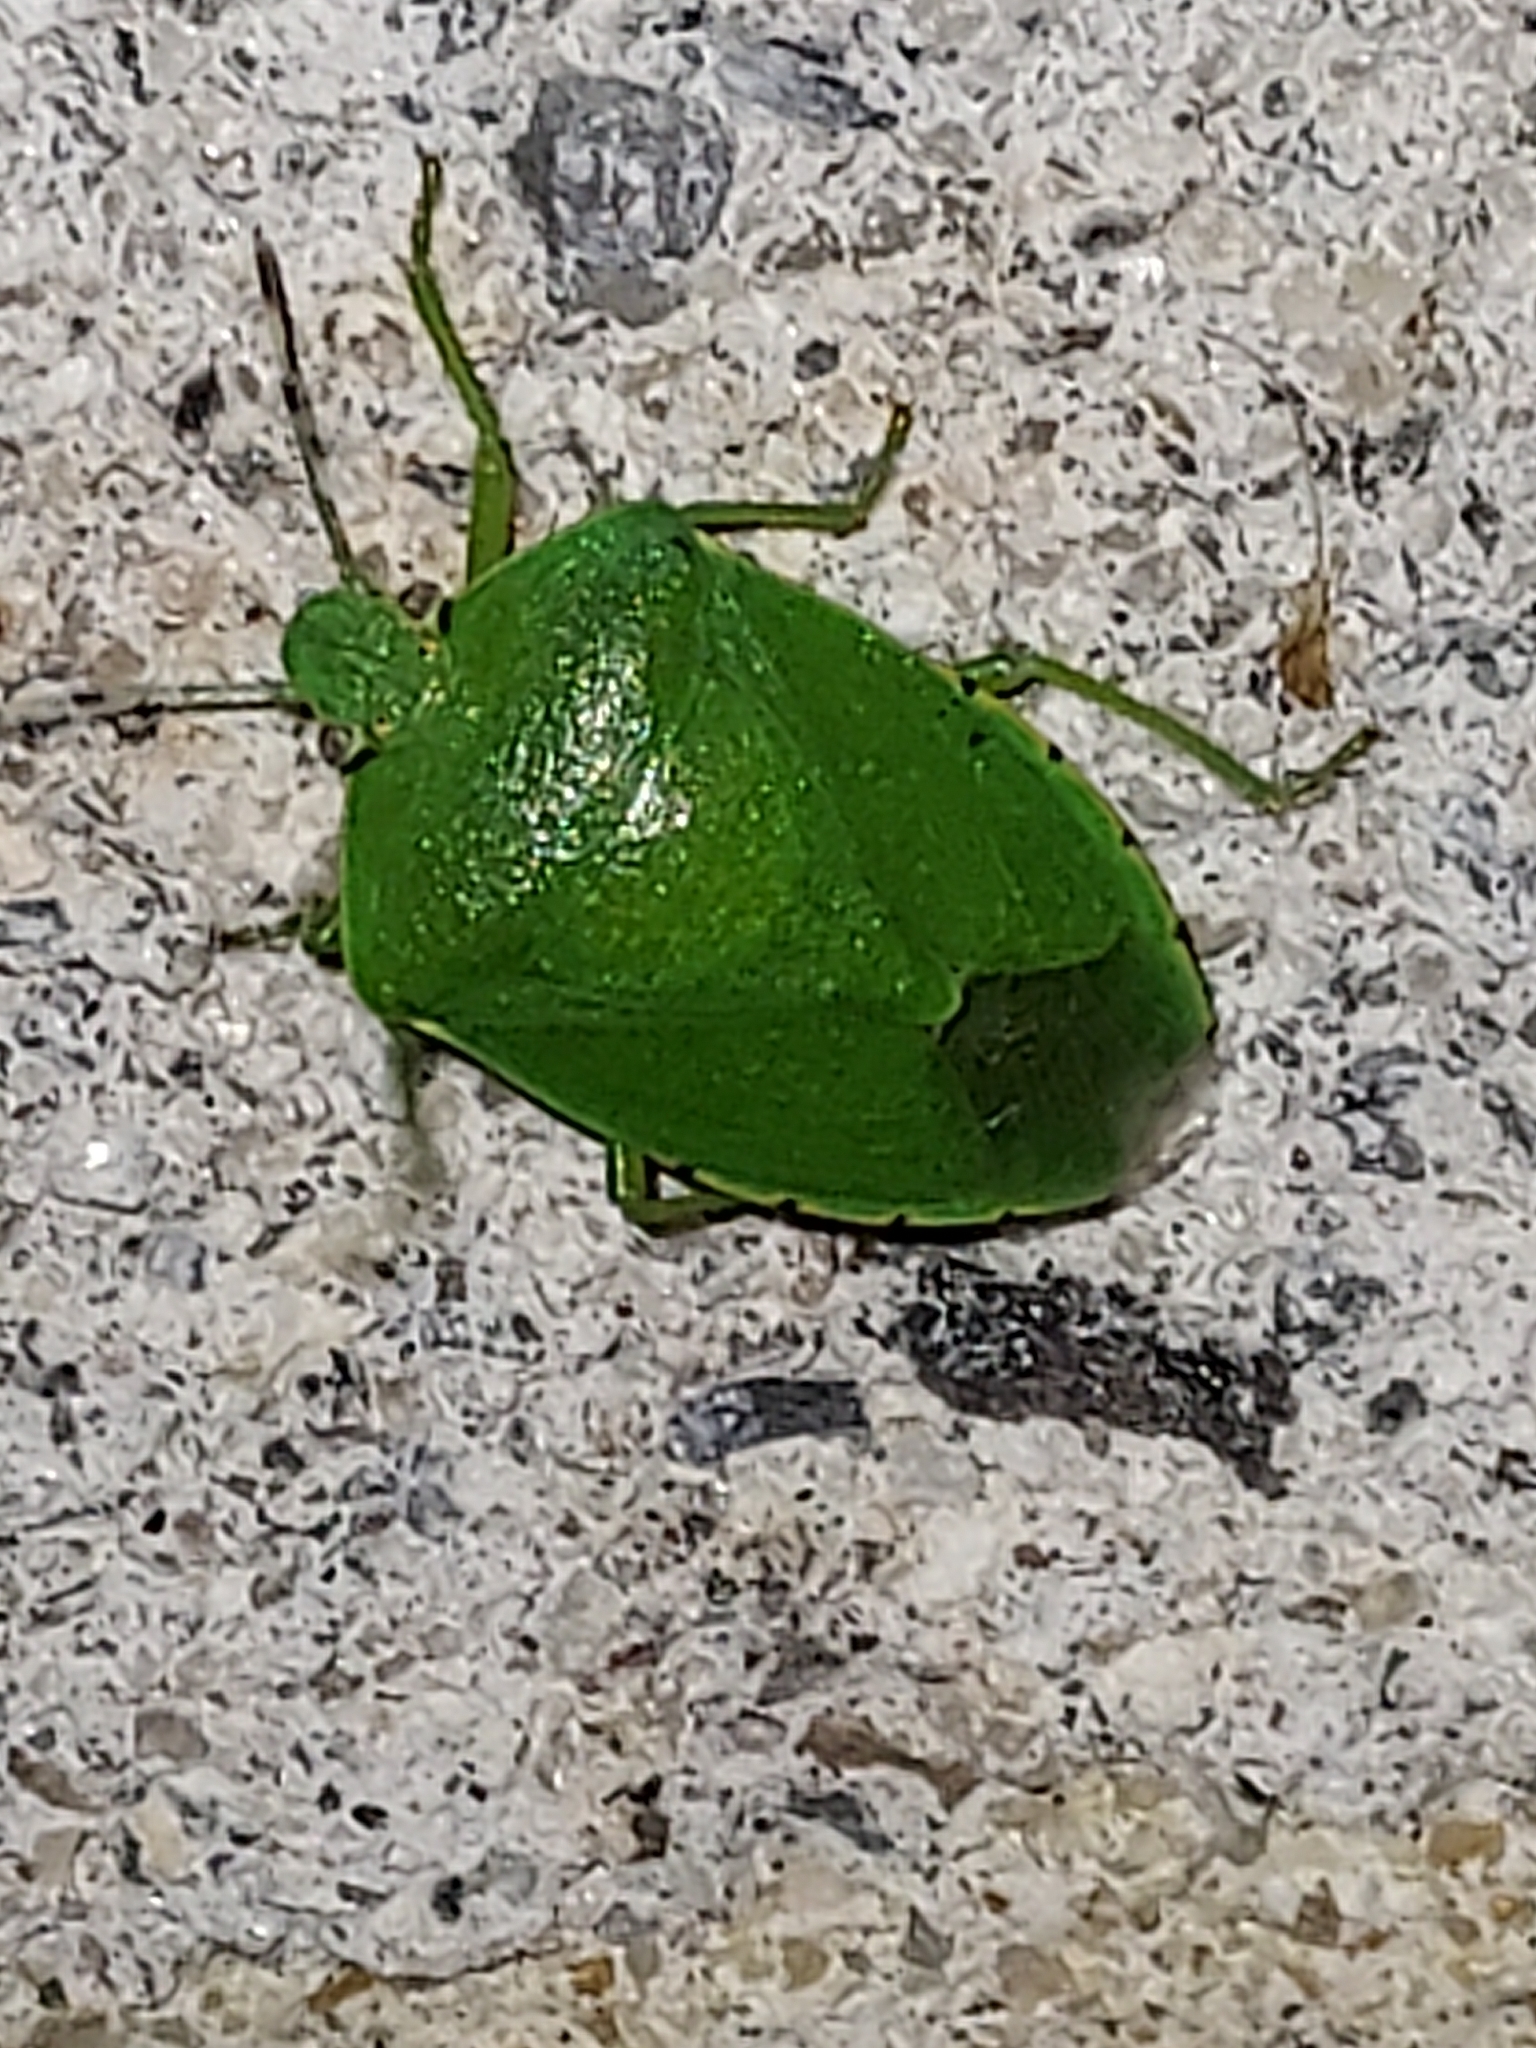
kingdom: Animalia
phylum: Arthropoda
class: Insecta
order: Hemiptera
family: Pentatomidae
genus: Chinavia
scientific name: Chinavia hilaris
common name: Green stink bug
